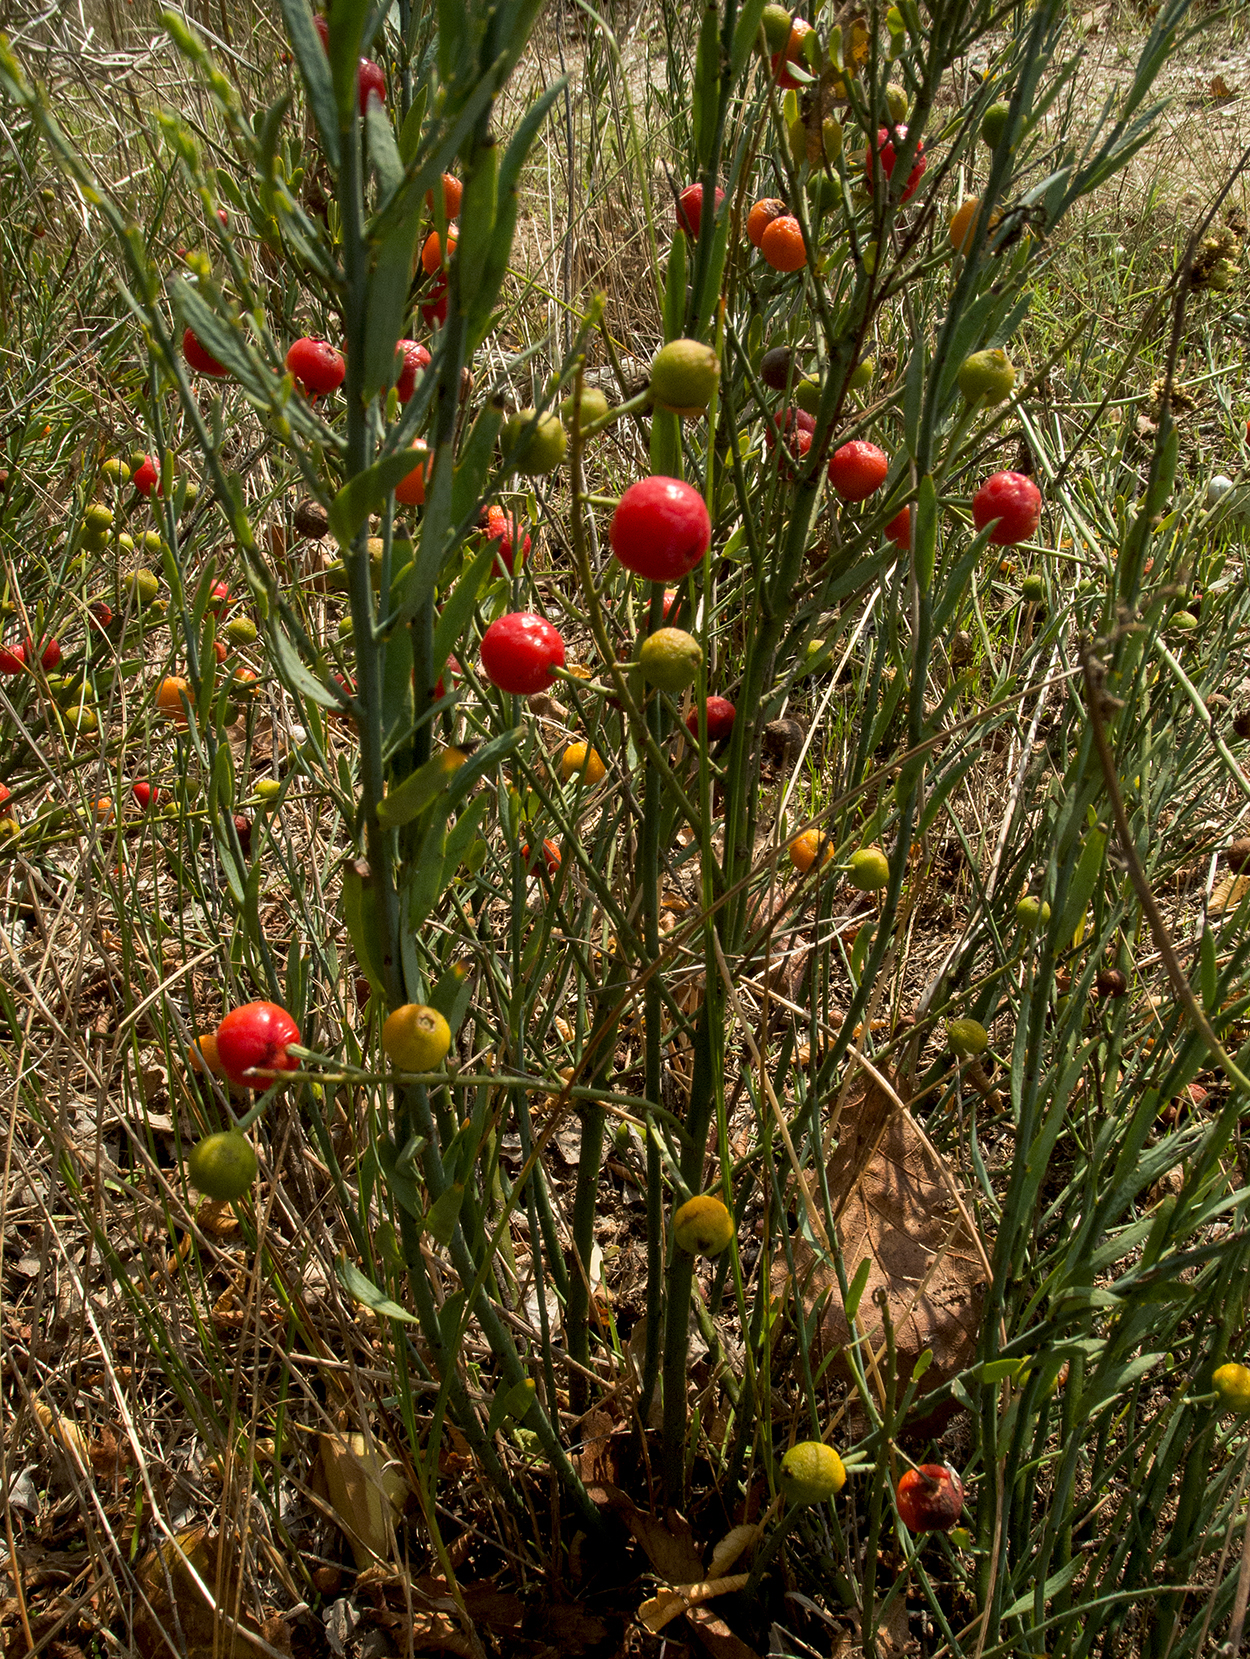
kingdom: Plantae
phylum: Tracheophyta
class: Magnoliopsida
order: Santalales
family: Santalaceae
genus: Osyris
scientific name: Osyris alba
